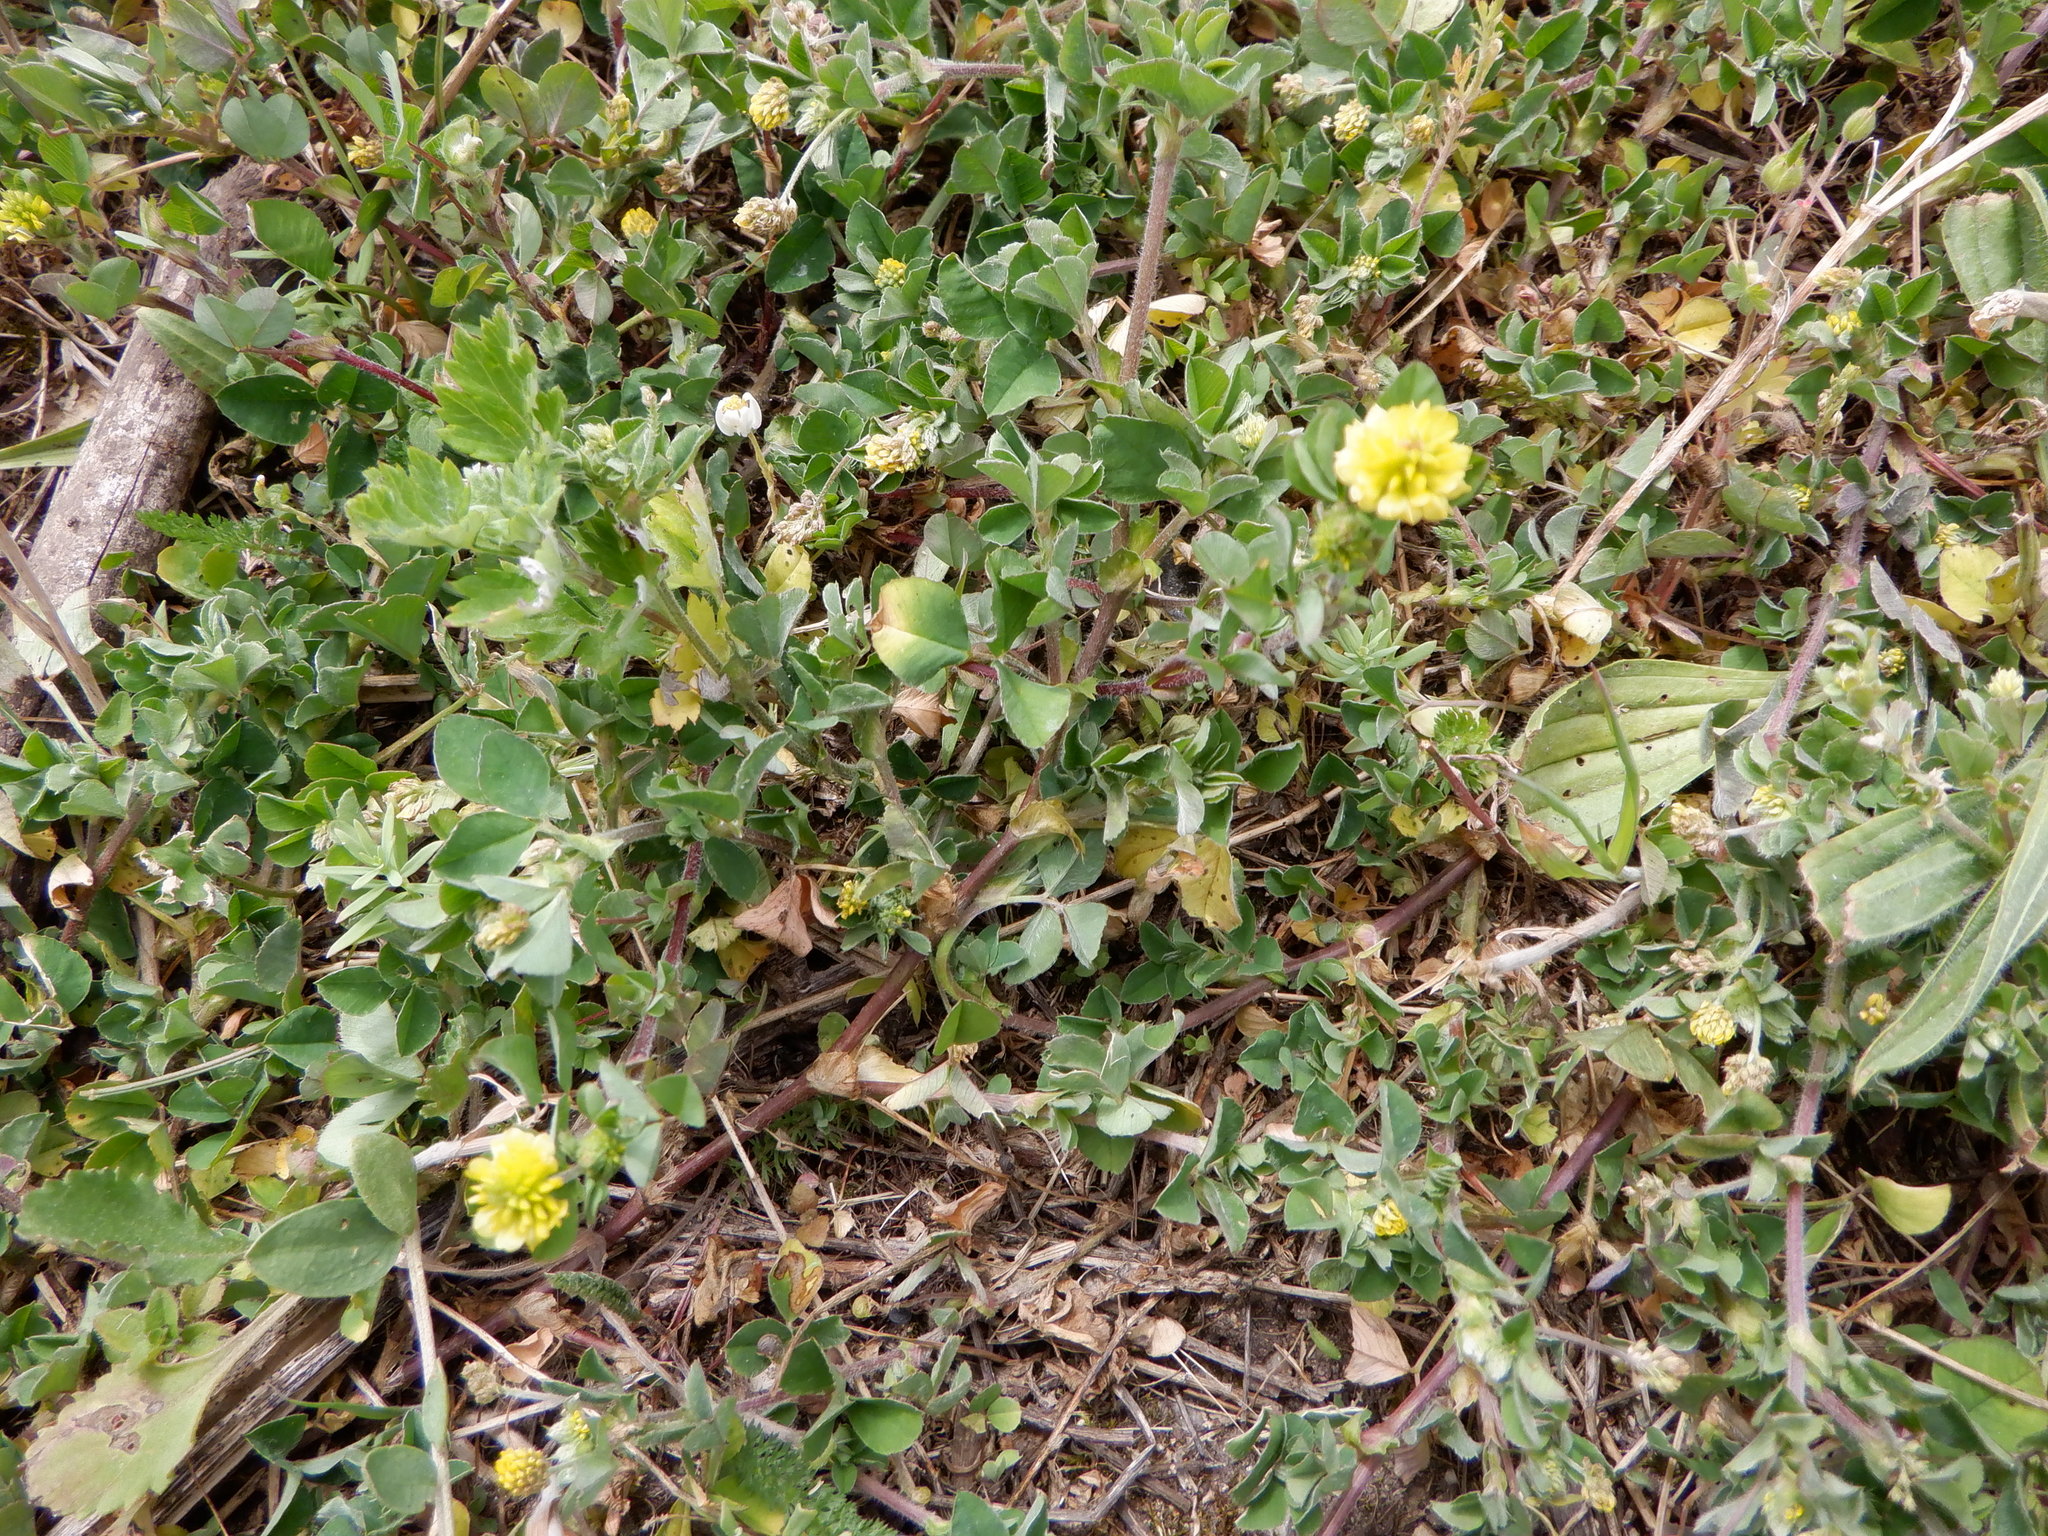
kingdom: Plantae
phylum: Tracheophyta
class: Magnoliopsida
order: Fabales
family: Fabaceae
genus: Trifolium
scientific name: Trifolium campestre
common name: Field clover
